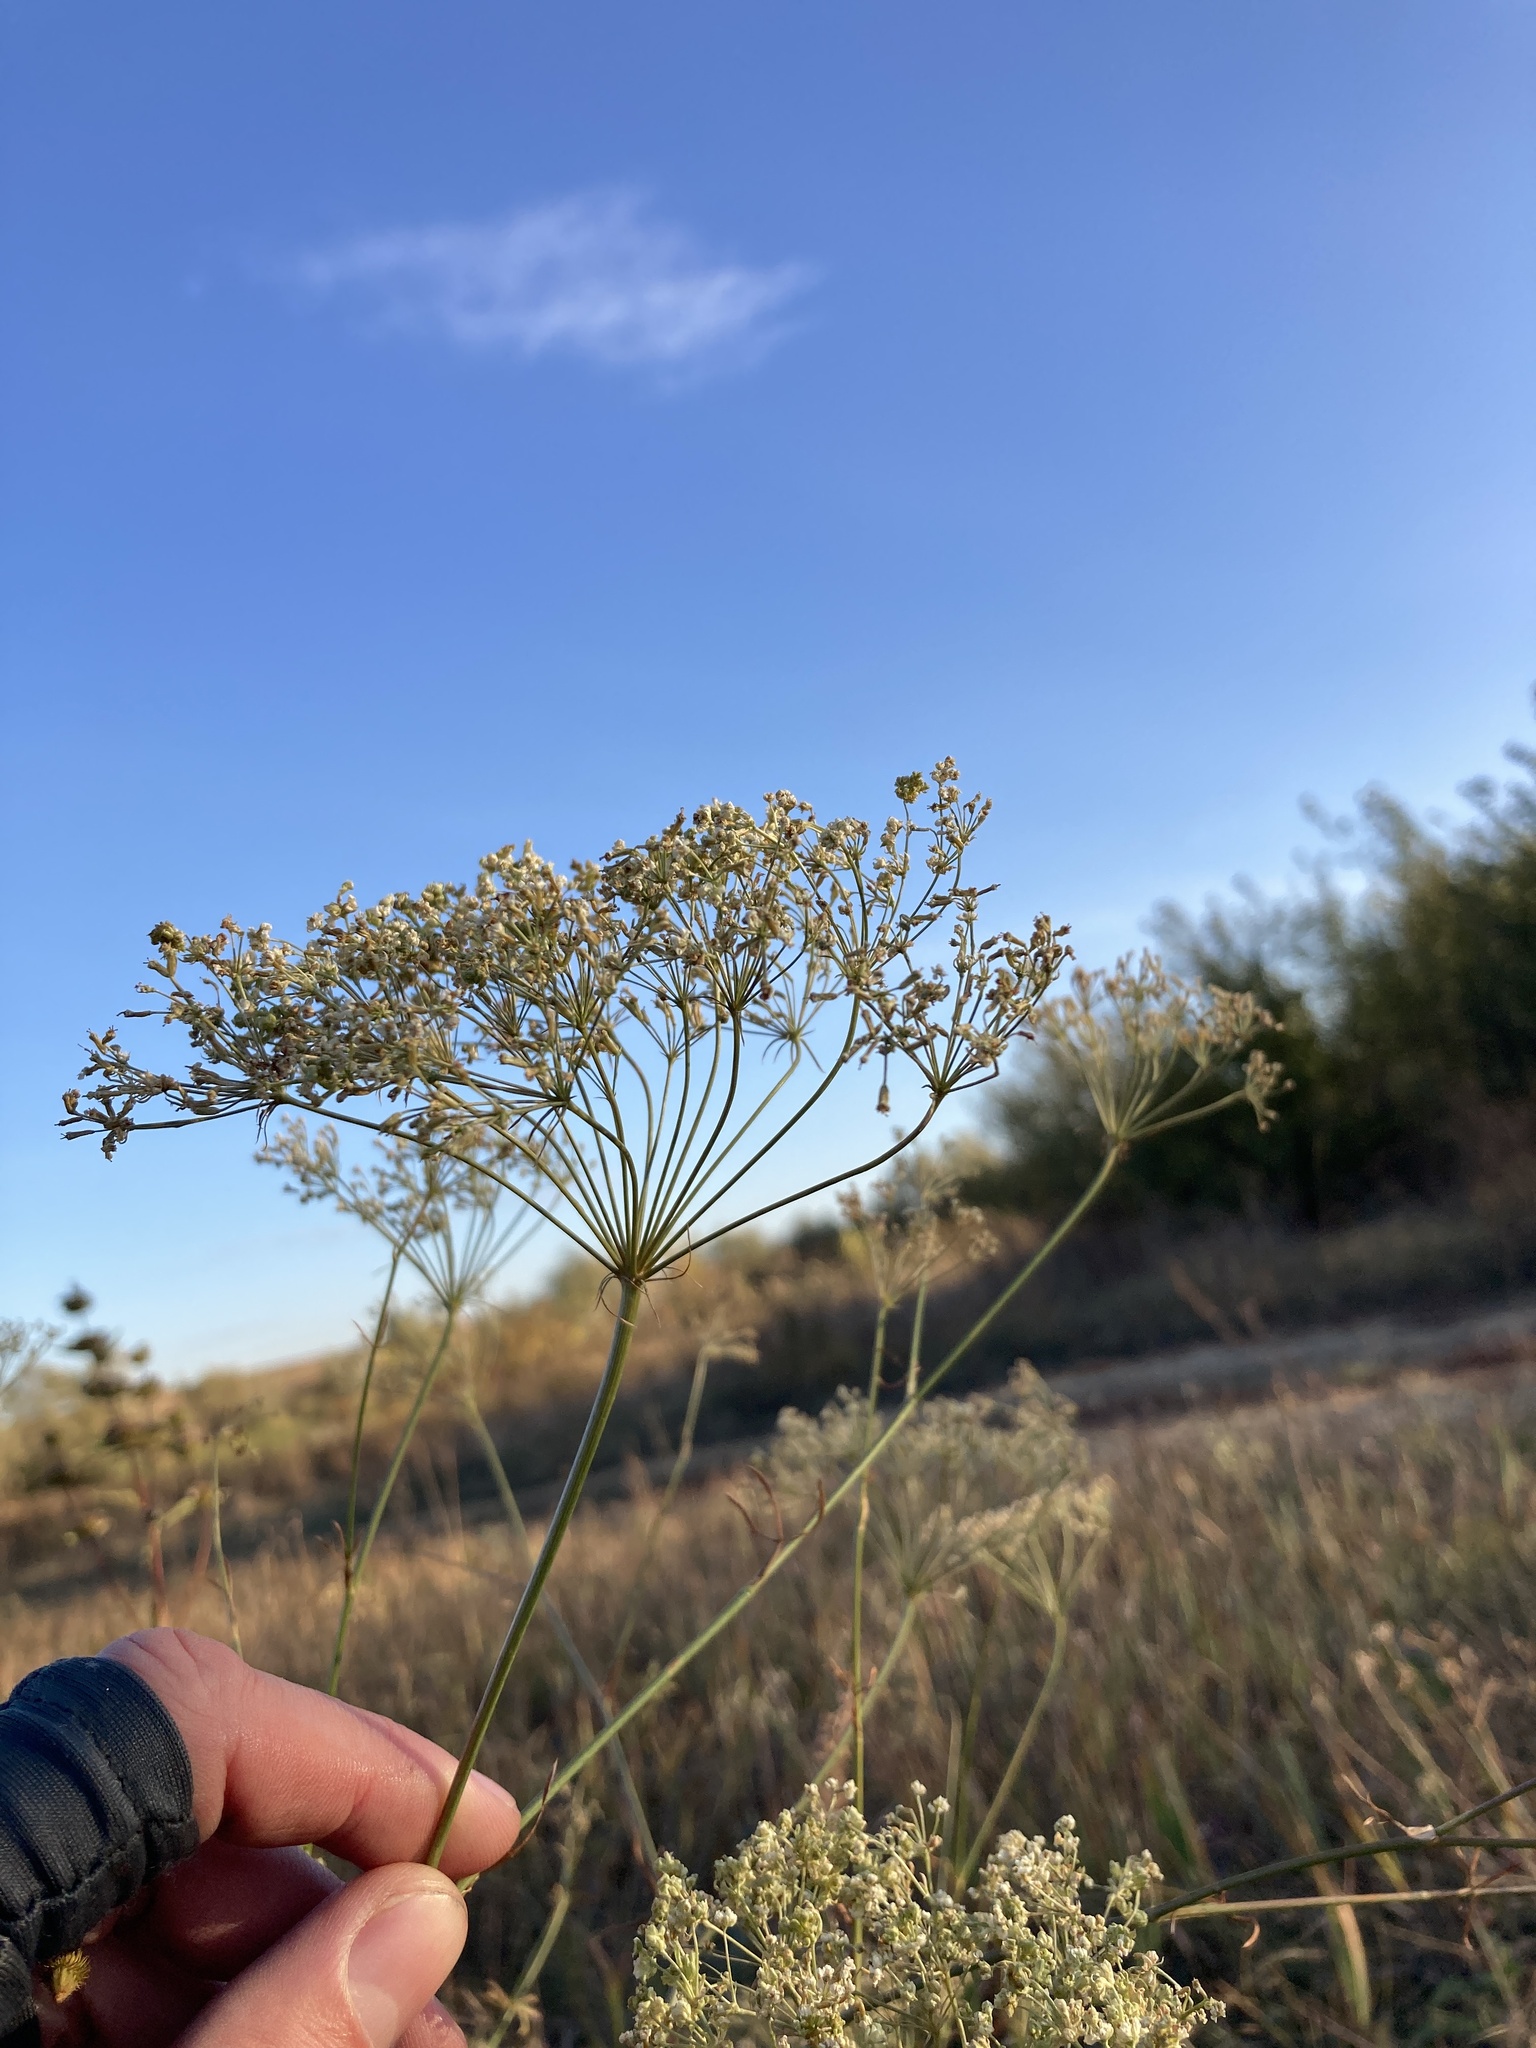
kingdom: Plantae
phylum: Tracheophyta
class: Magnoliopsida
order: Apiales
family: Apiaceae
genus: Falcaria
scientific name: Falcaria vulgaris
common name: Longleaf
